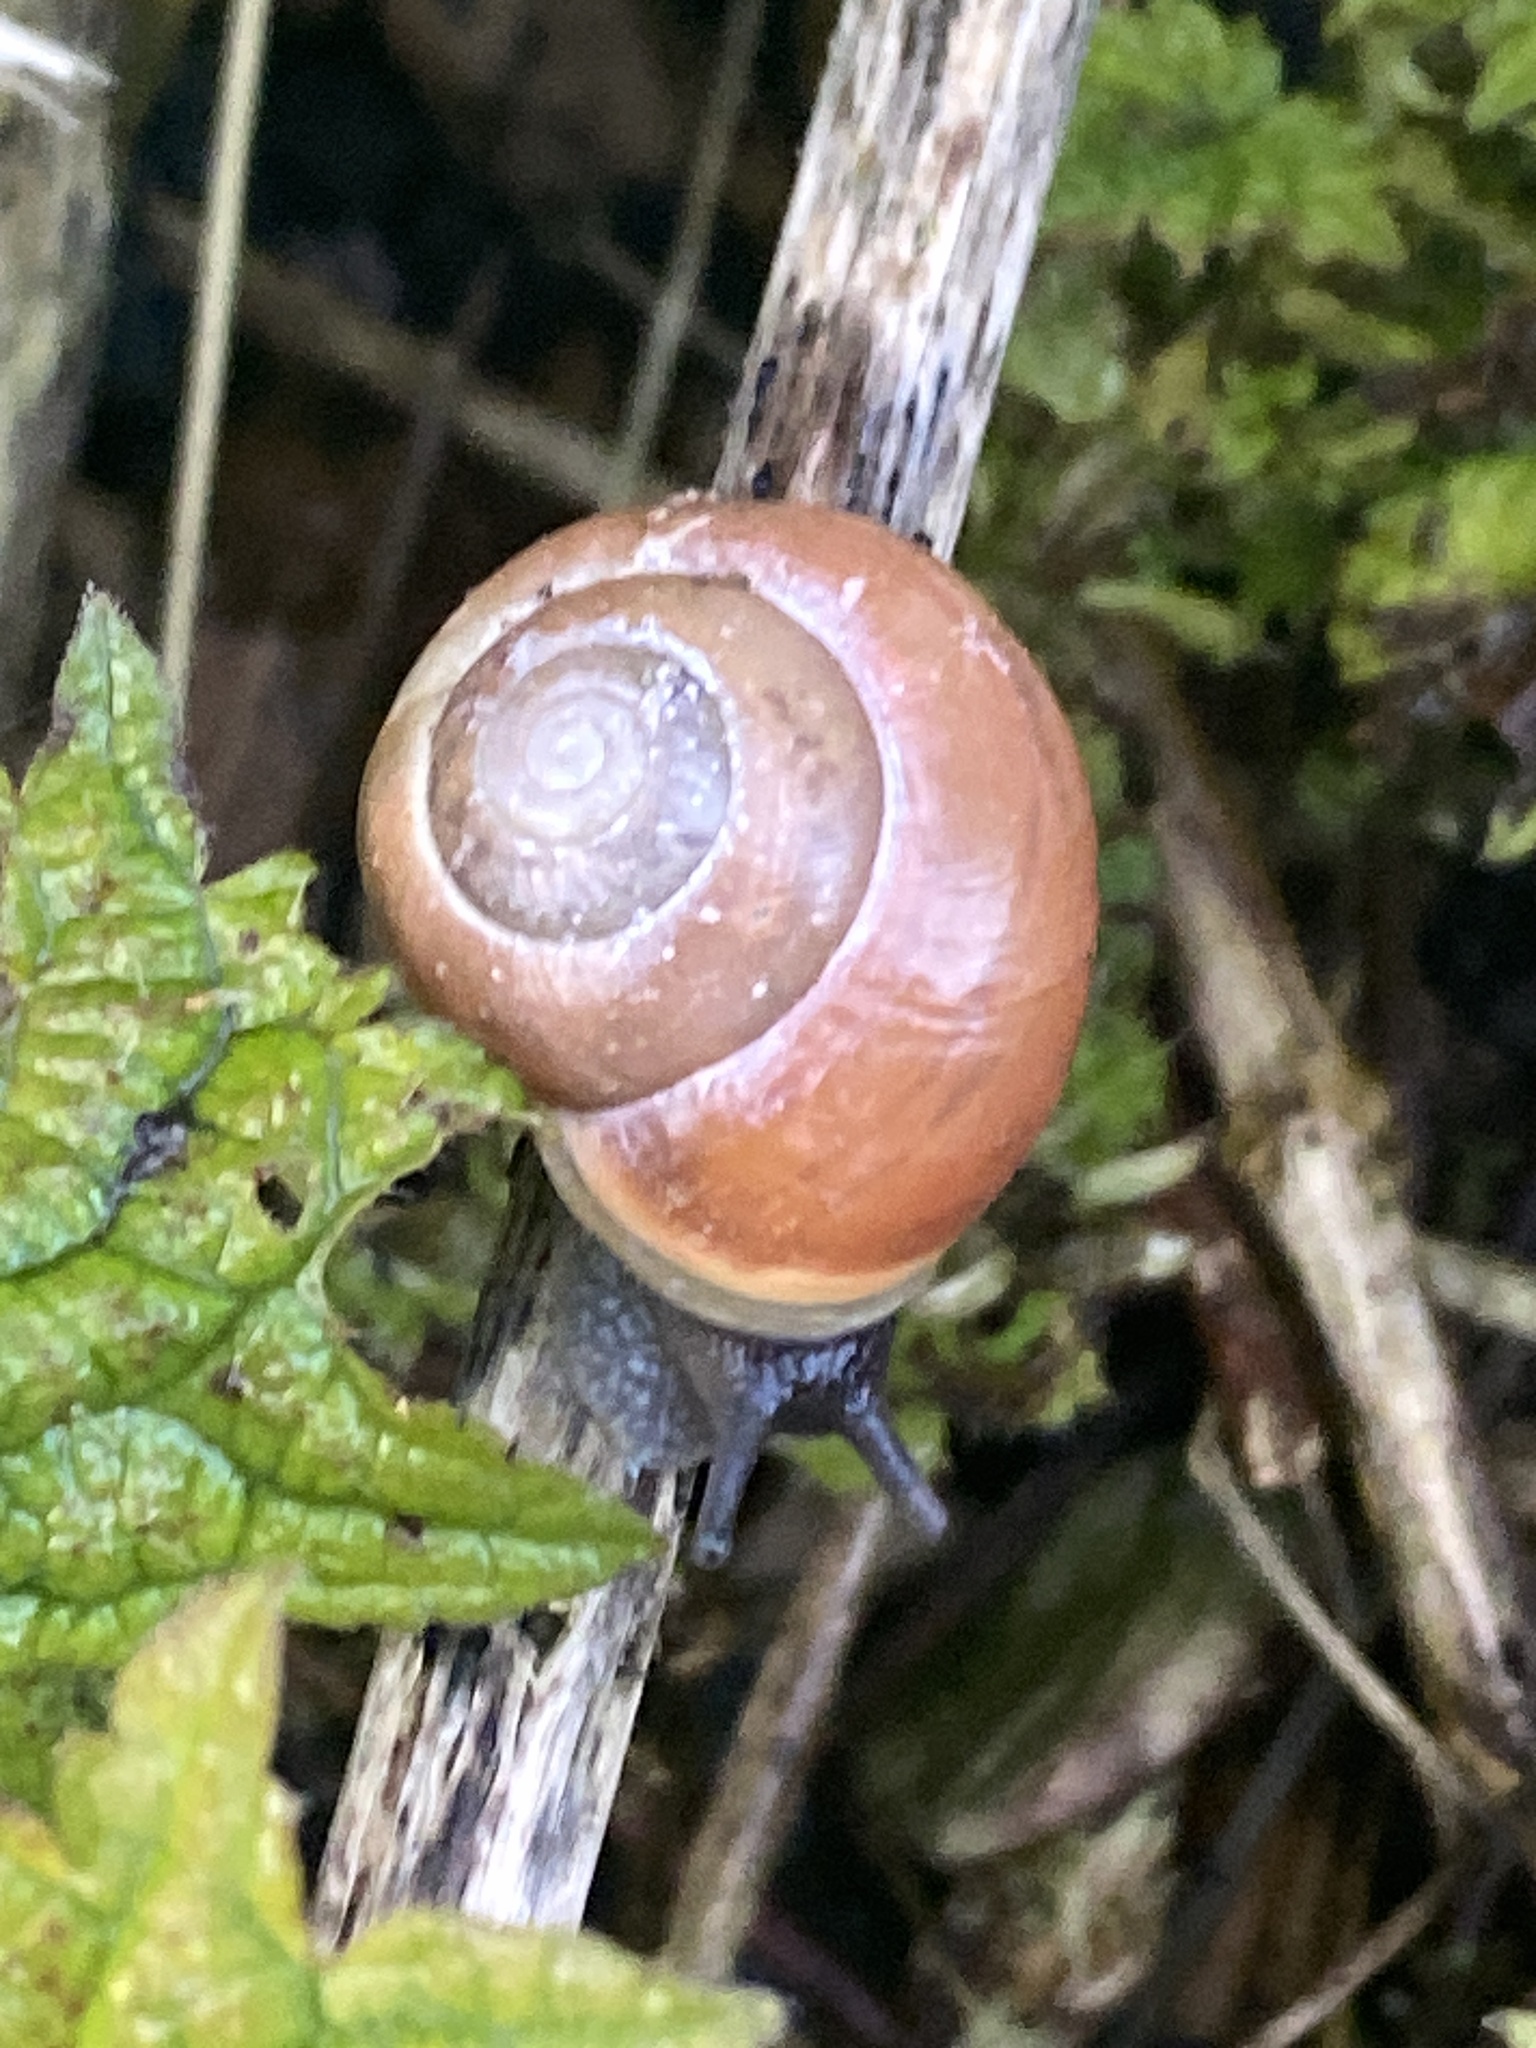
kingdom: Animalia
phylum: Mollusca
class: Gastropoda
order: Stylommatophora
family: Helicidae
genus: Cepaea
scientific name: Cepaea hortensis
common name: White-lip gardensnail
